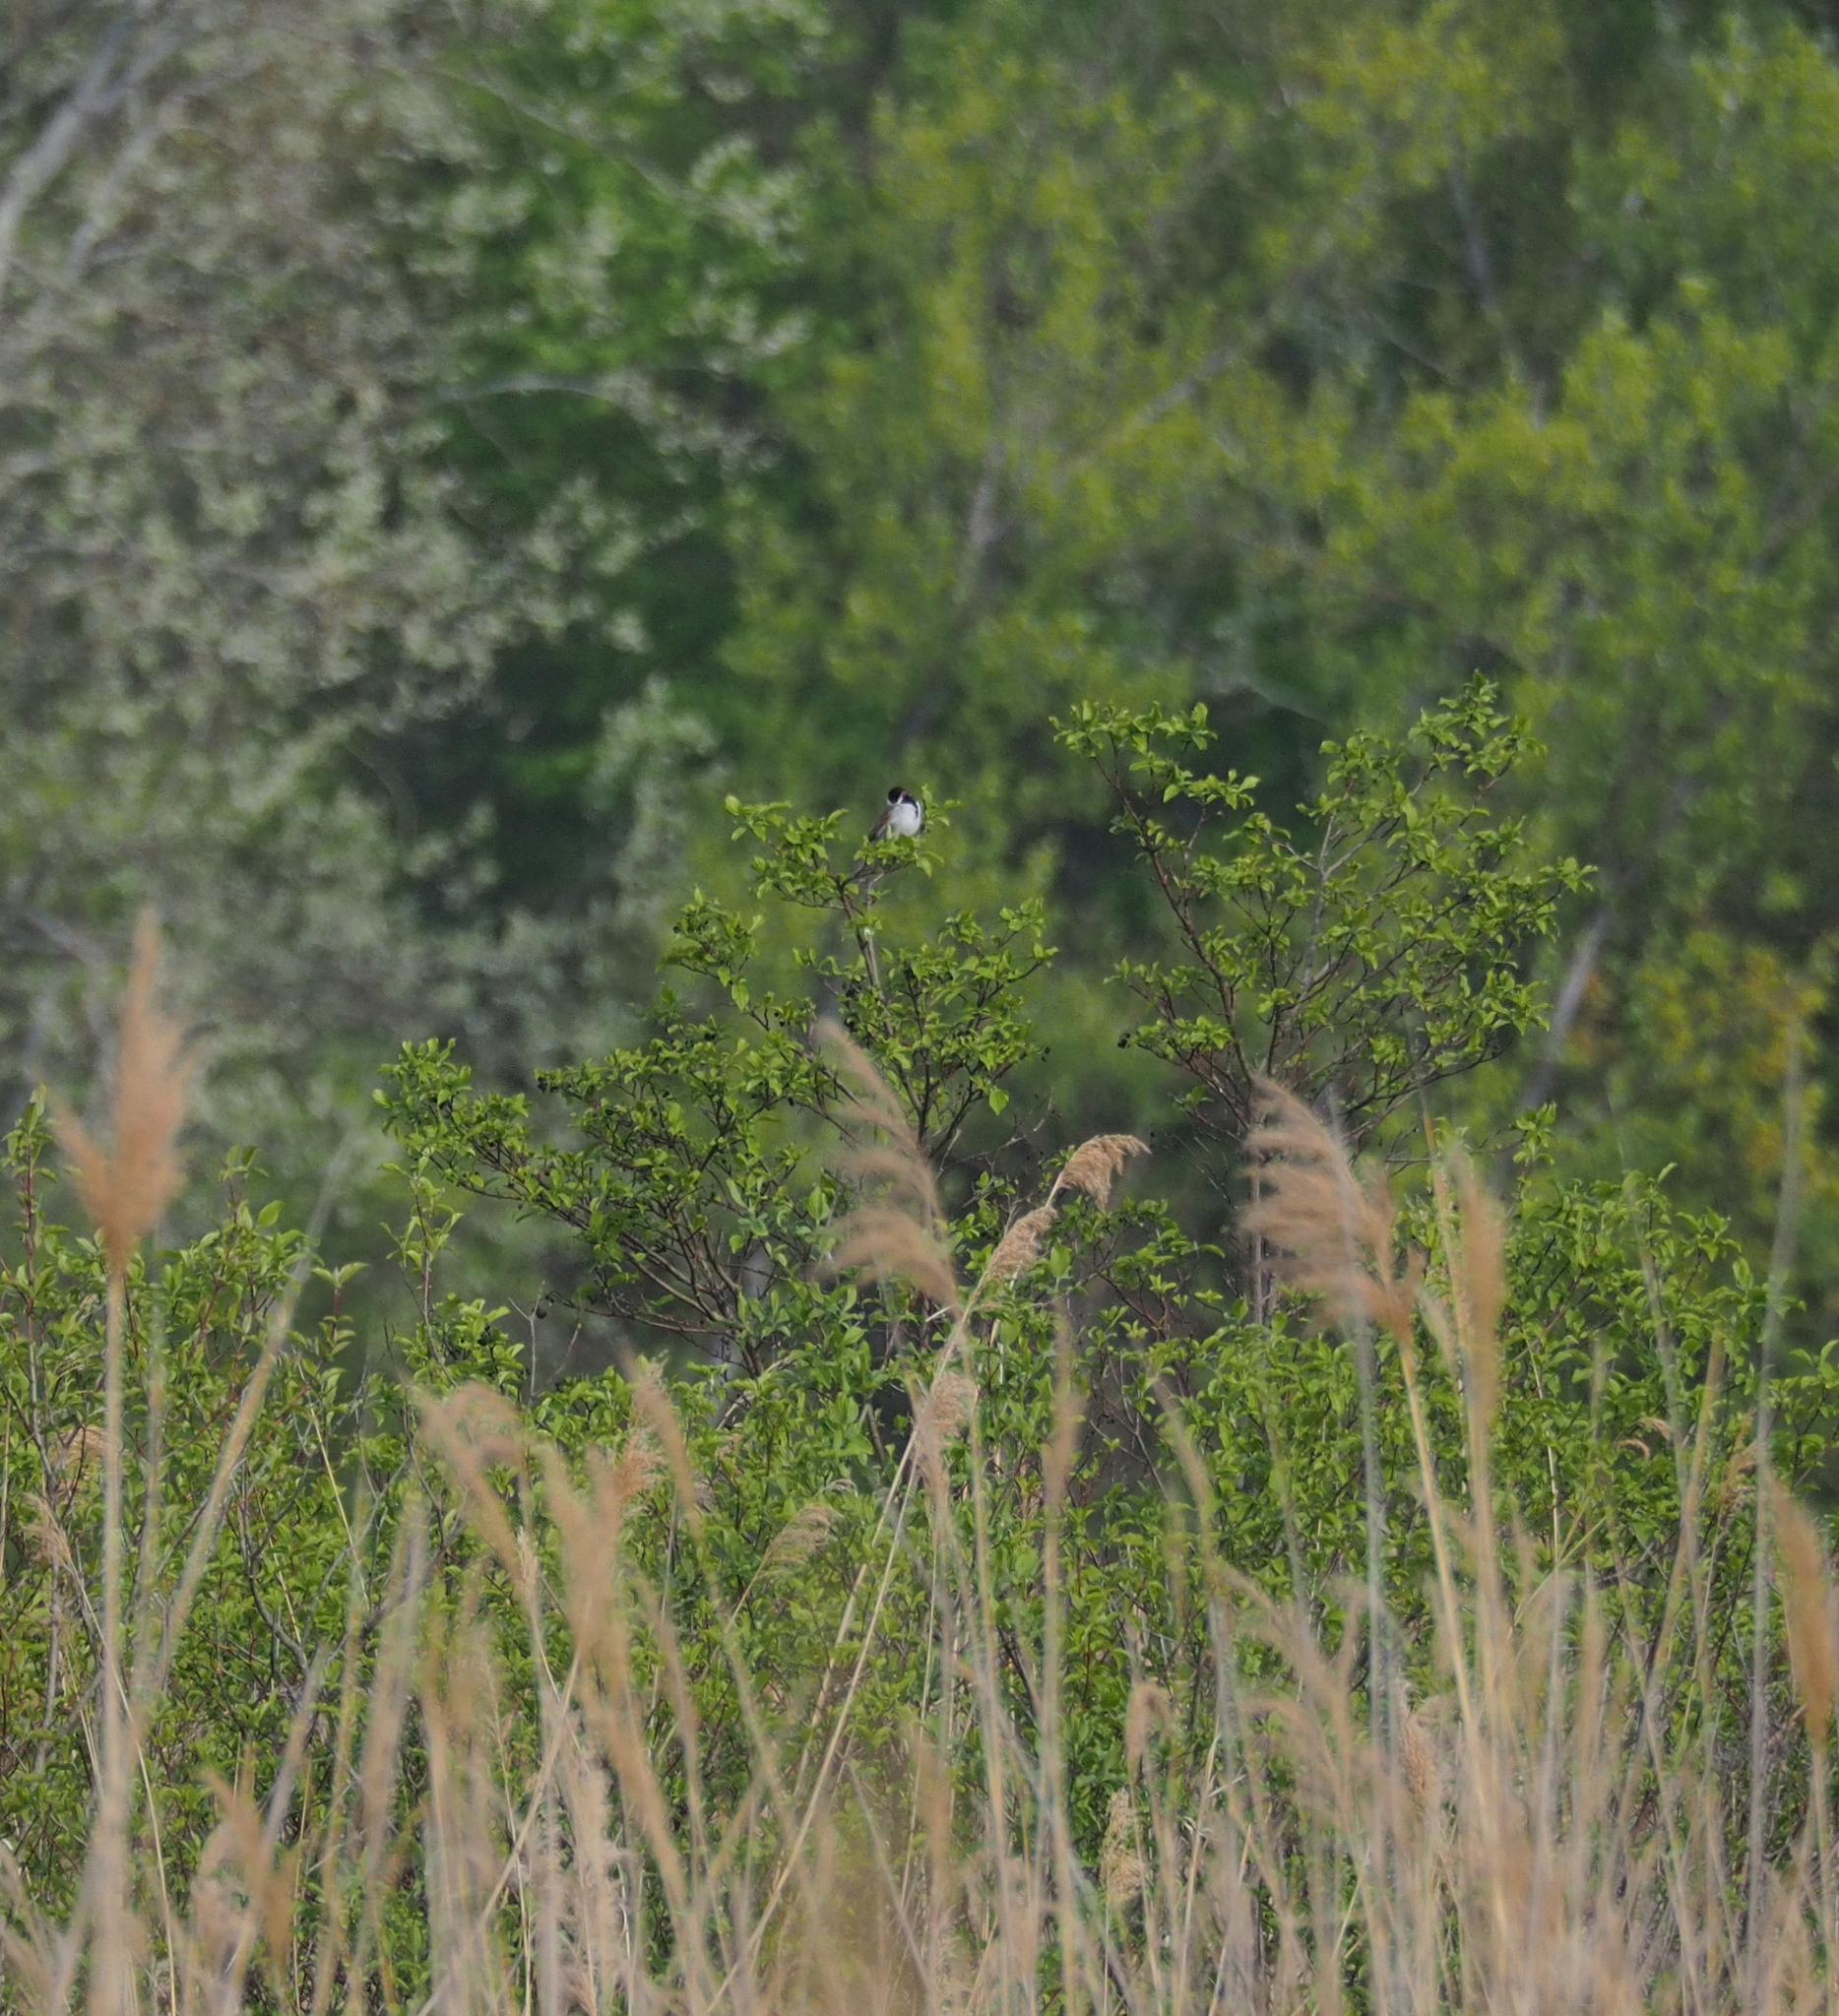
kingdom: Animalia
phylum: Chordata
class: Aves
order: Passeriformes
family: Emberizidae
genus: Emberiza
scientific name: Emberiza schoeniclus
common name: Reed bunting
